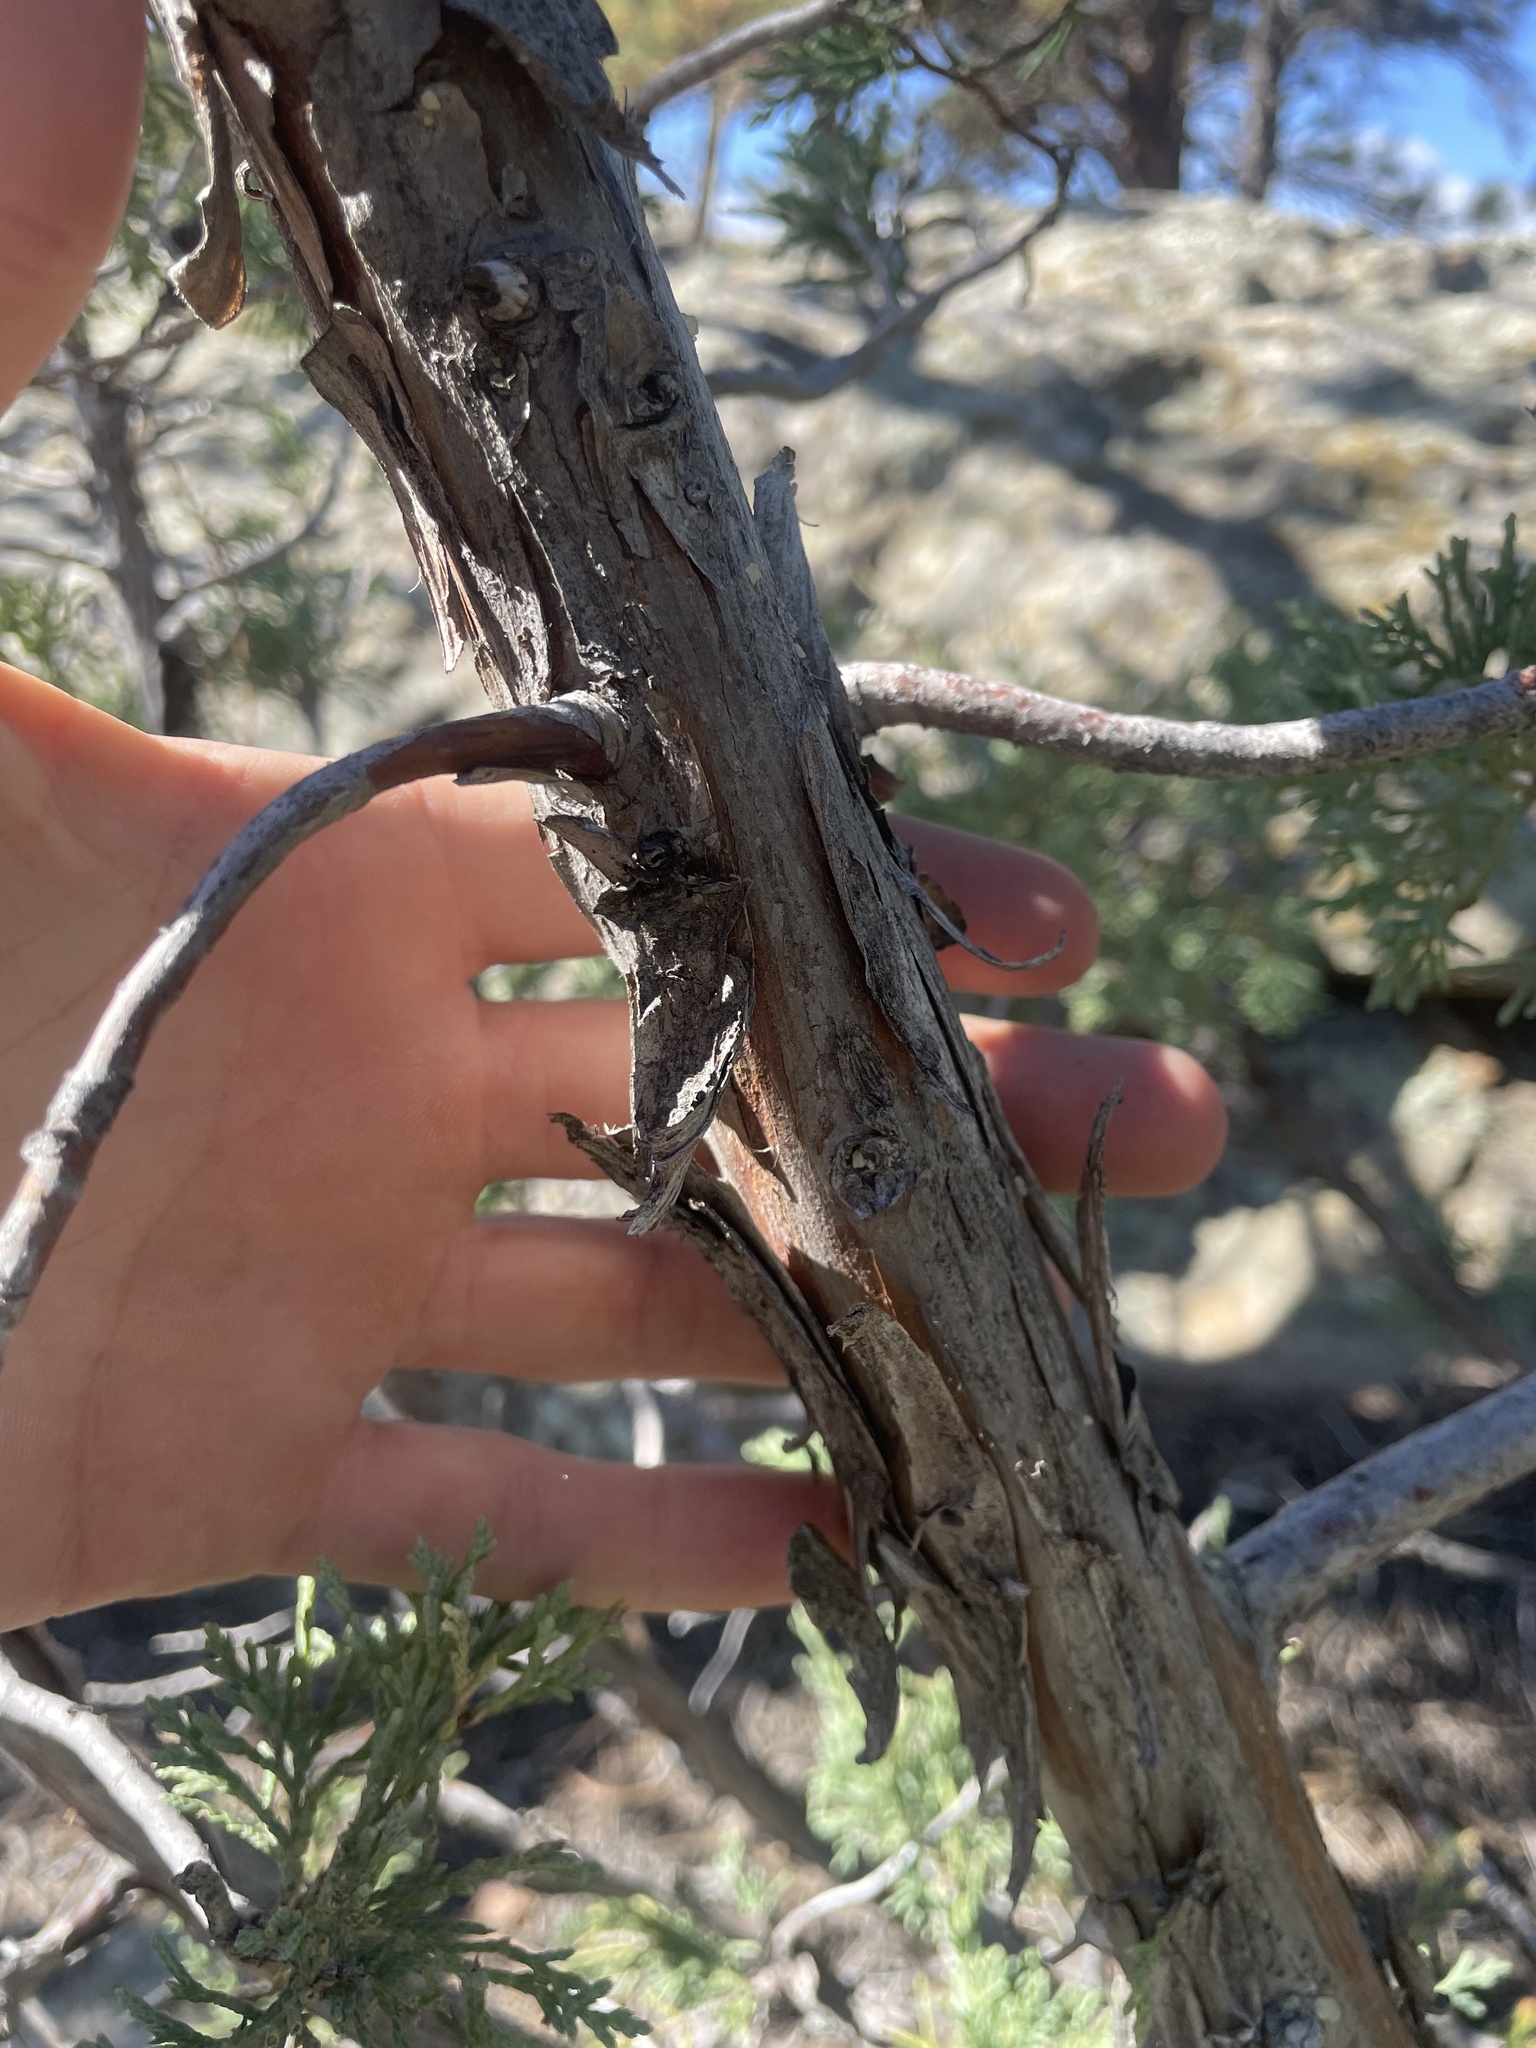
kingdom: Plantae
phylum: Tracheophyta
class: Pinopsida
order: Pinales
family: Cupressaceae
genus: Juniperus
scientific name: Juniperus scopulorum
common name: Rocky mountain juniper
